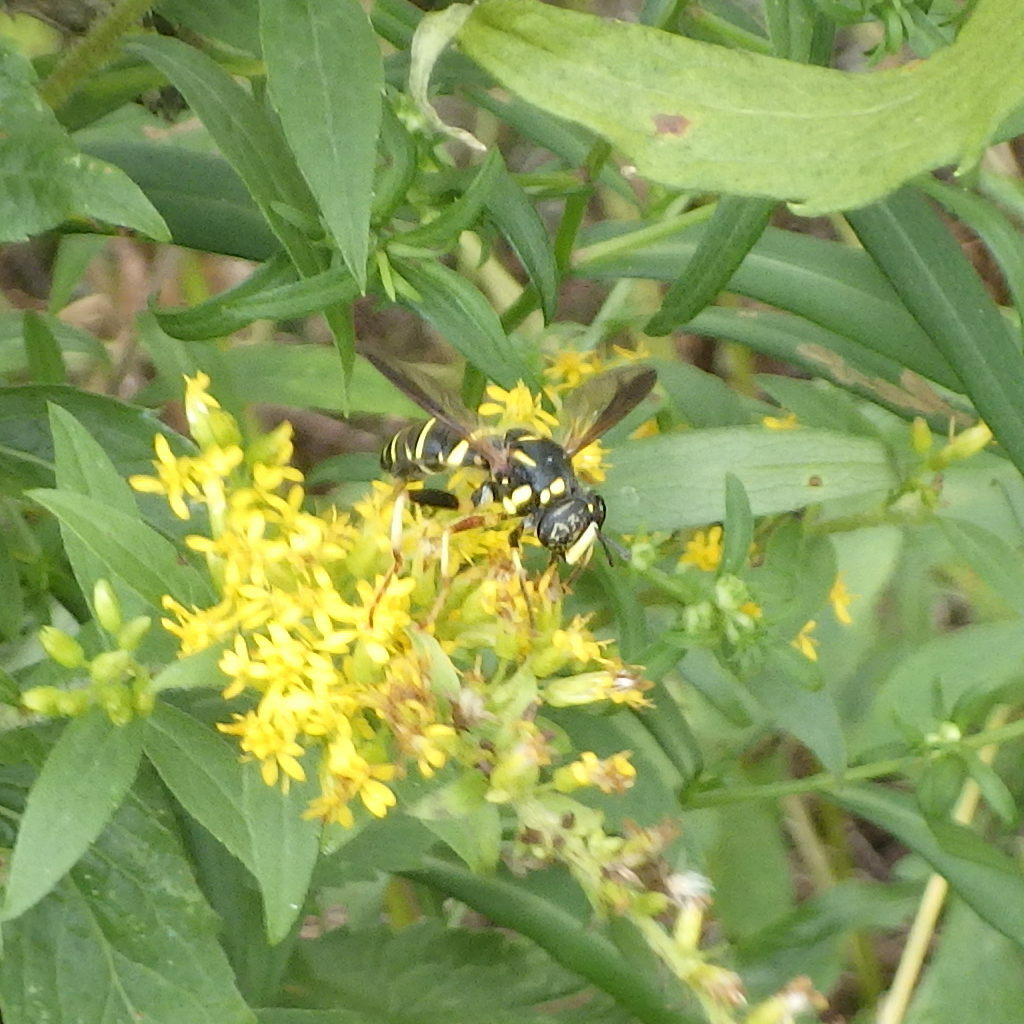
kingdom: Animalia
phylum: Arthropoda
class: Insecta
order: Diptera
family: Syrphidae
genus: Spilomyia
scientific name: Spilomyia sayi
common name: Four-lined hornet fly
